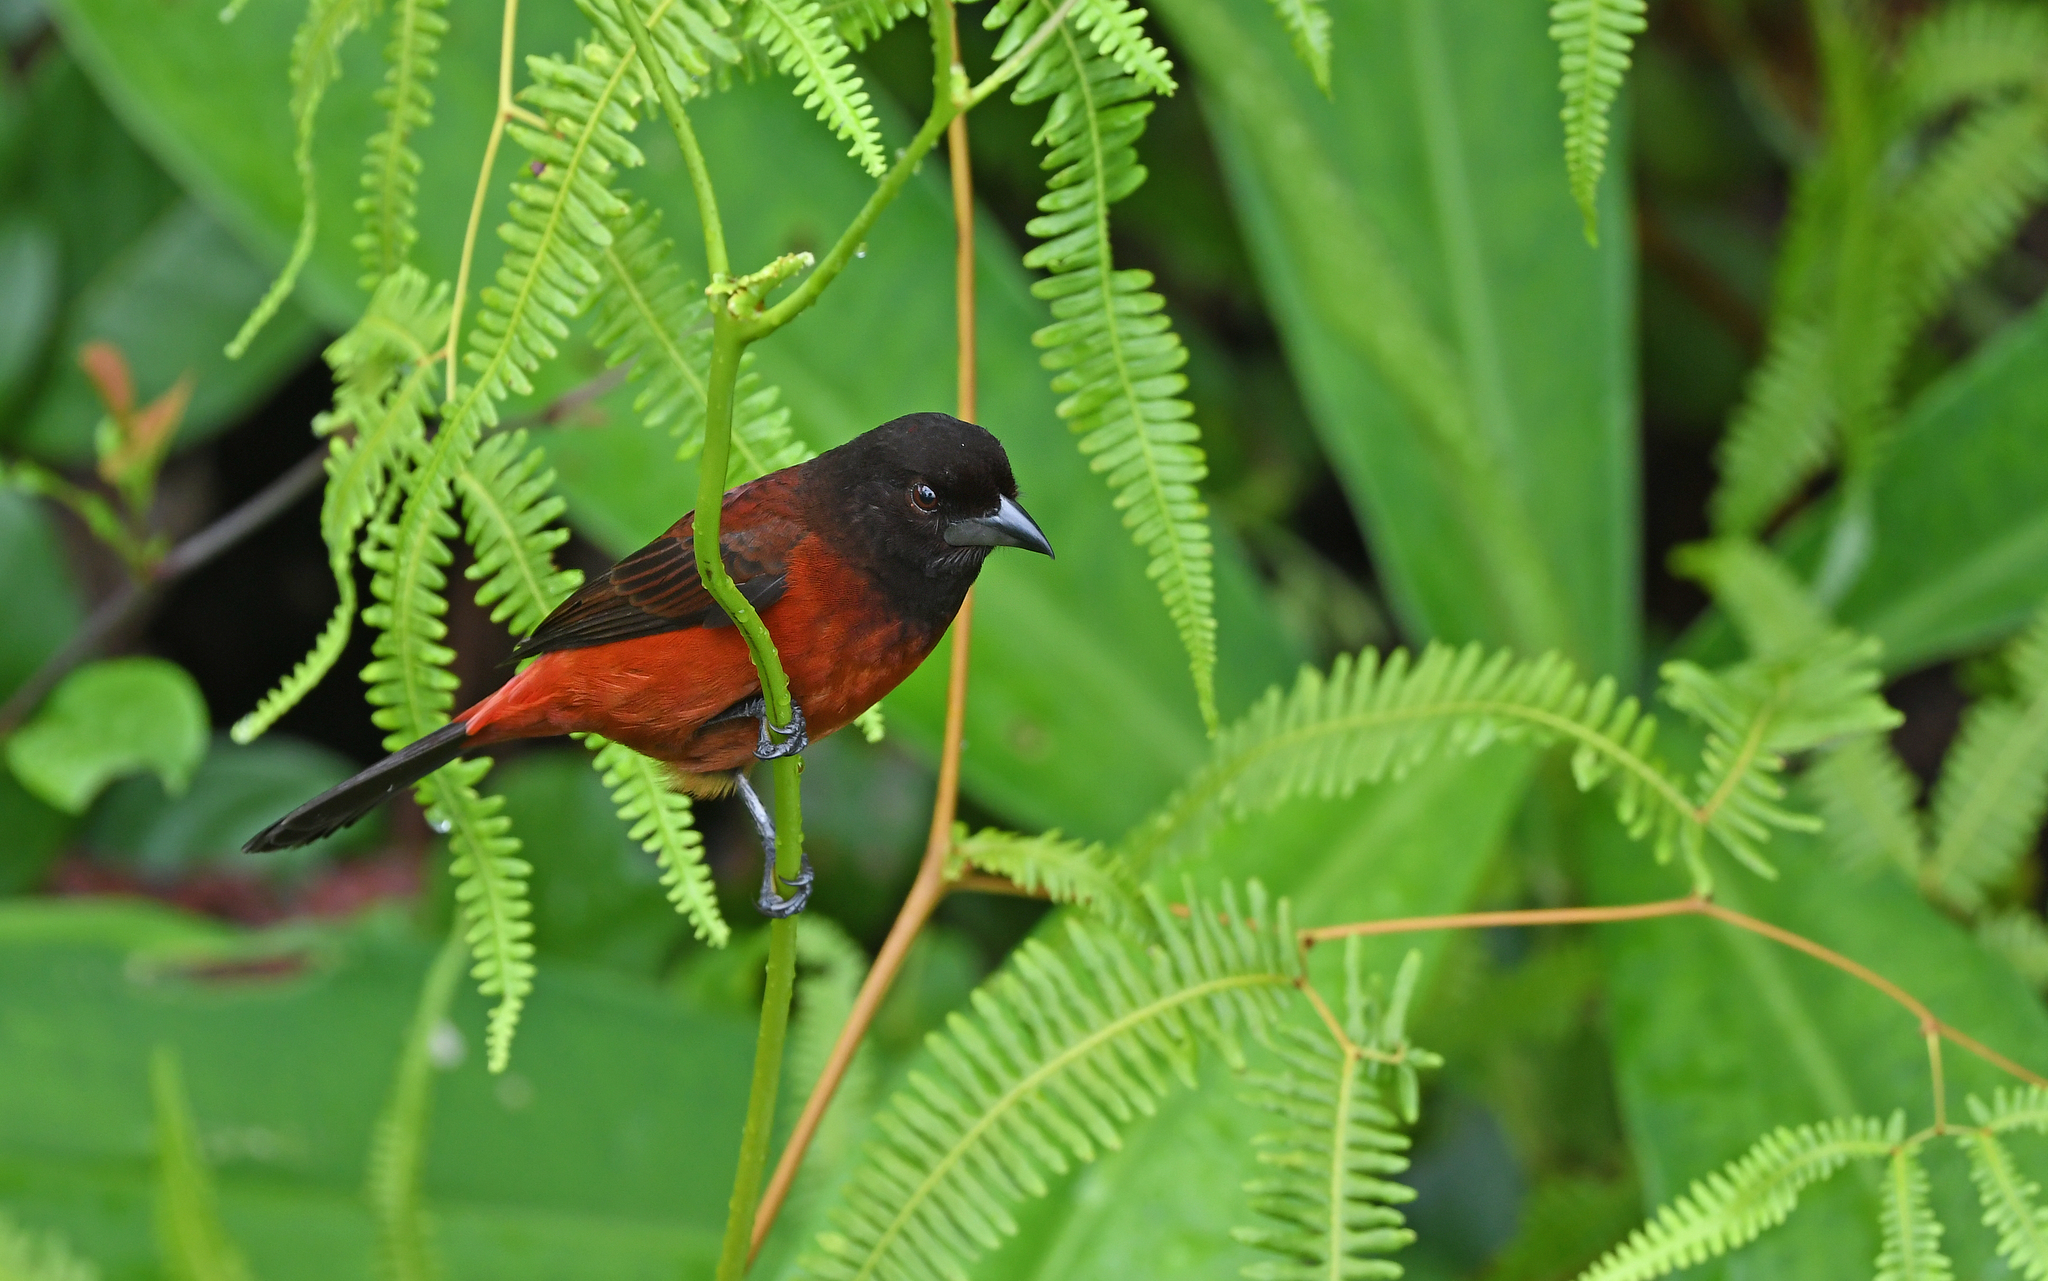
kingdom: Animalia
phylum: Chordata
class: Aves
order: Passeriformes
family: Thraupidae
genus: Ramphocelus
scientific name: Ramphocelus dimidiatus
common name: Crimson-backed tanager
